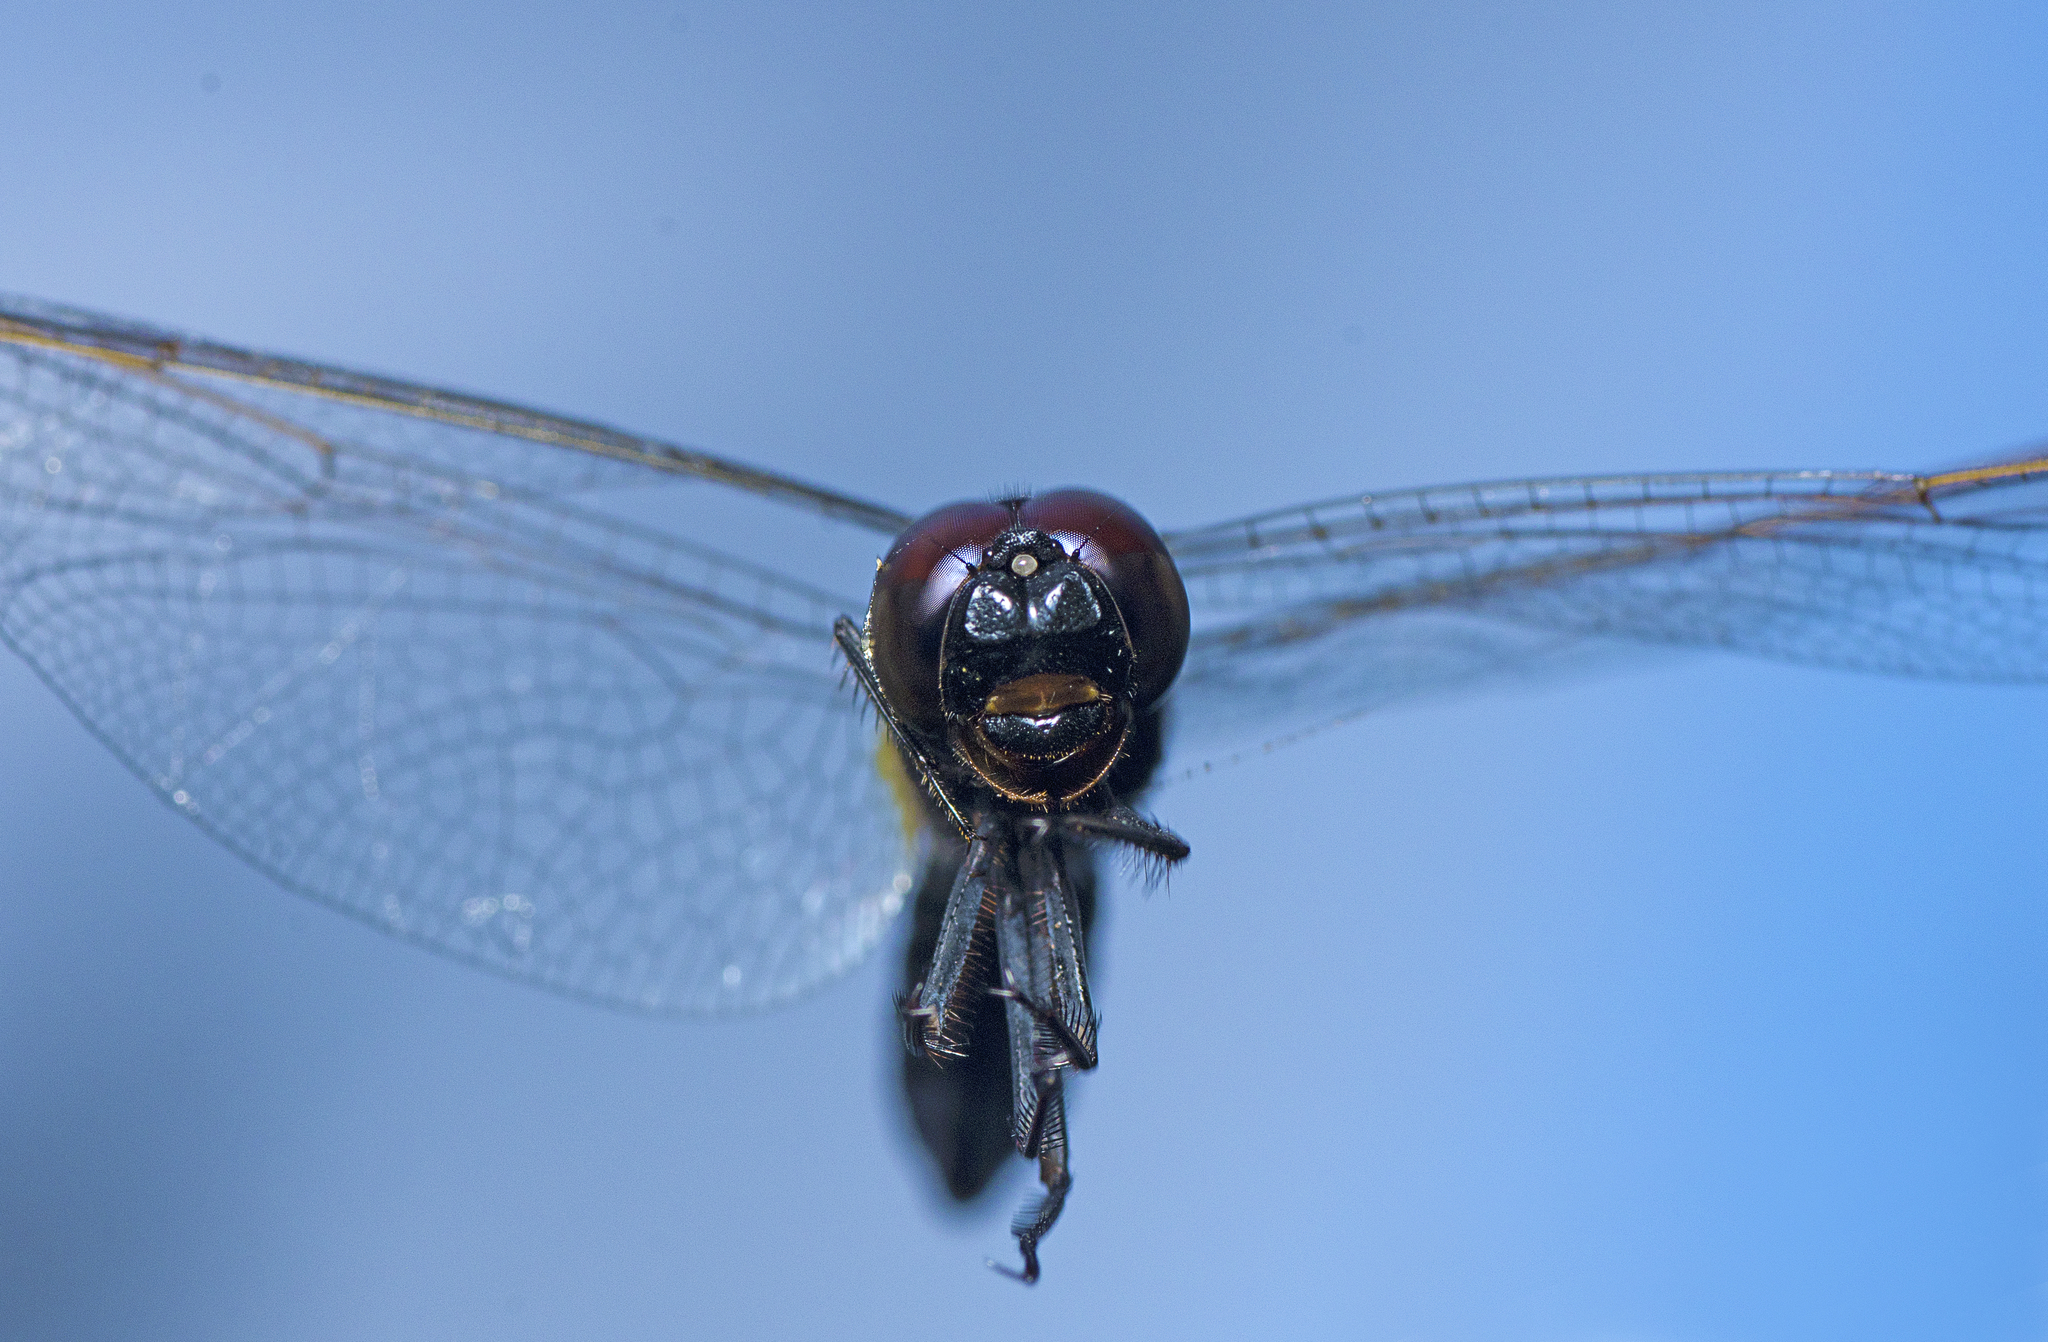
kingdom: Animalia
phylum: Arthropoda
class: Insecta
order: Odonata
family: Libellulidae
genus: Crocothemis
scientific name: Crocothemis nigrifrons
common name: Black-headed skimmer
